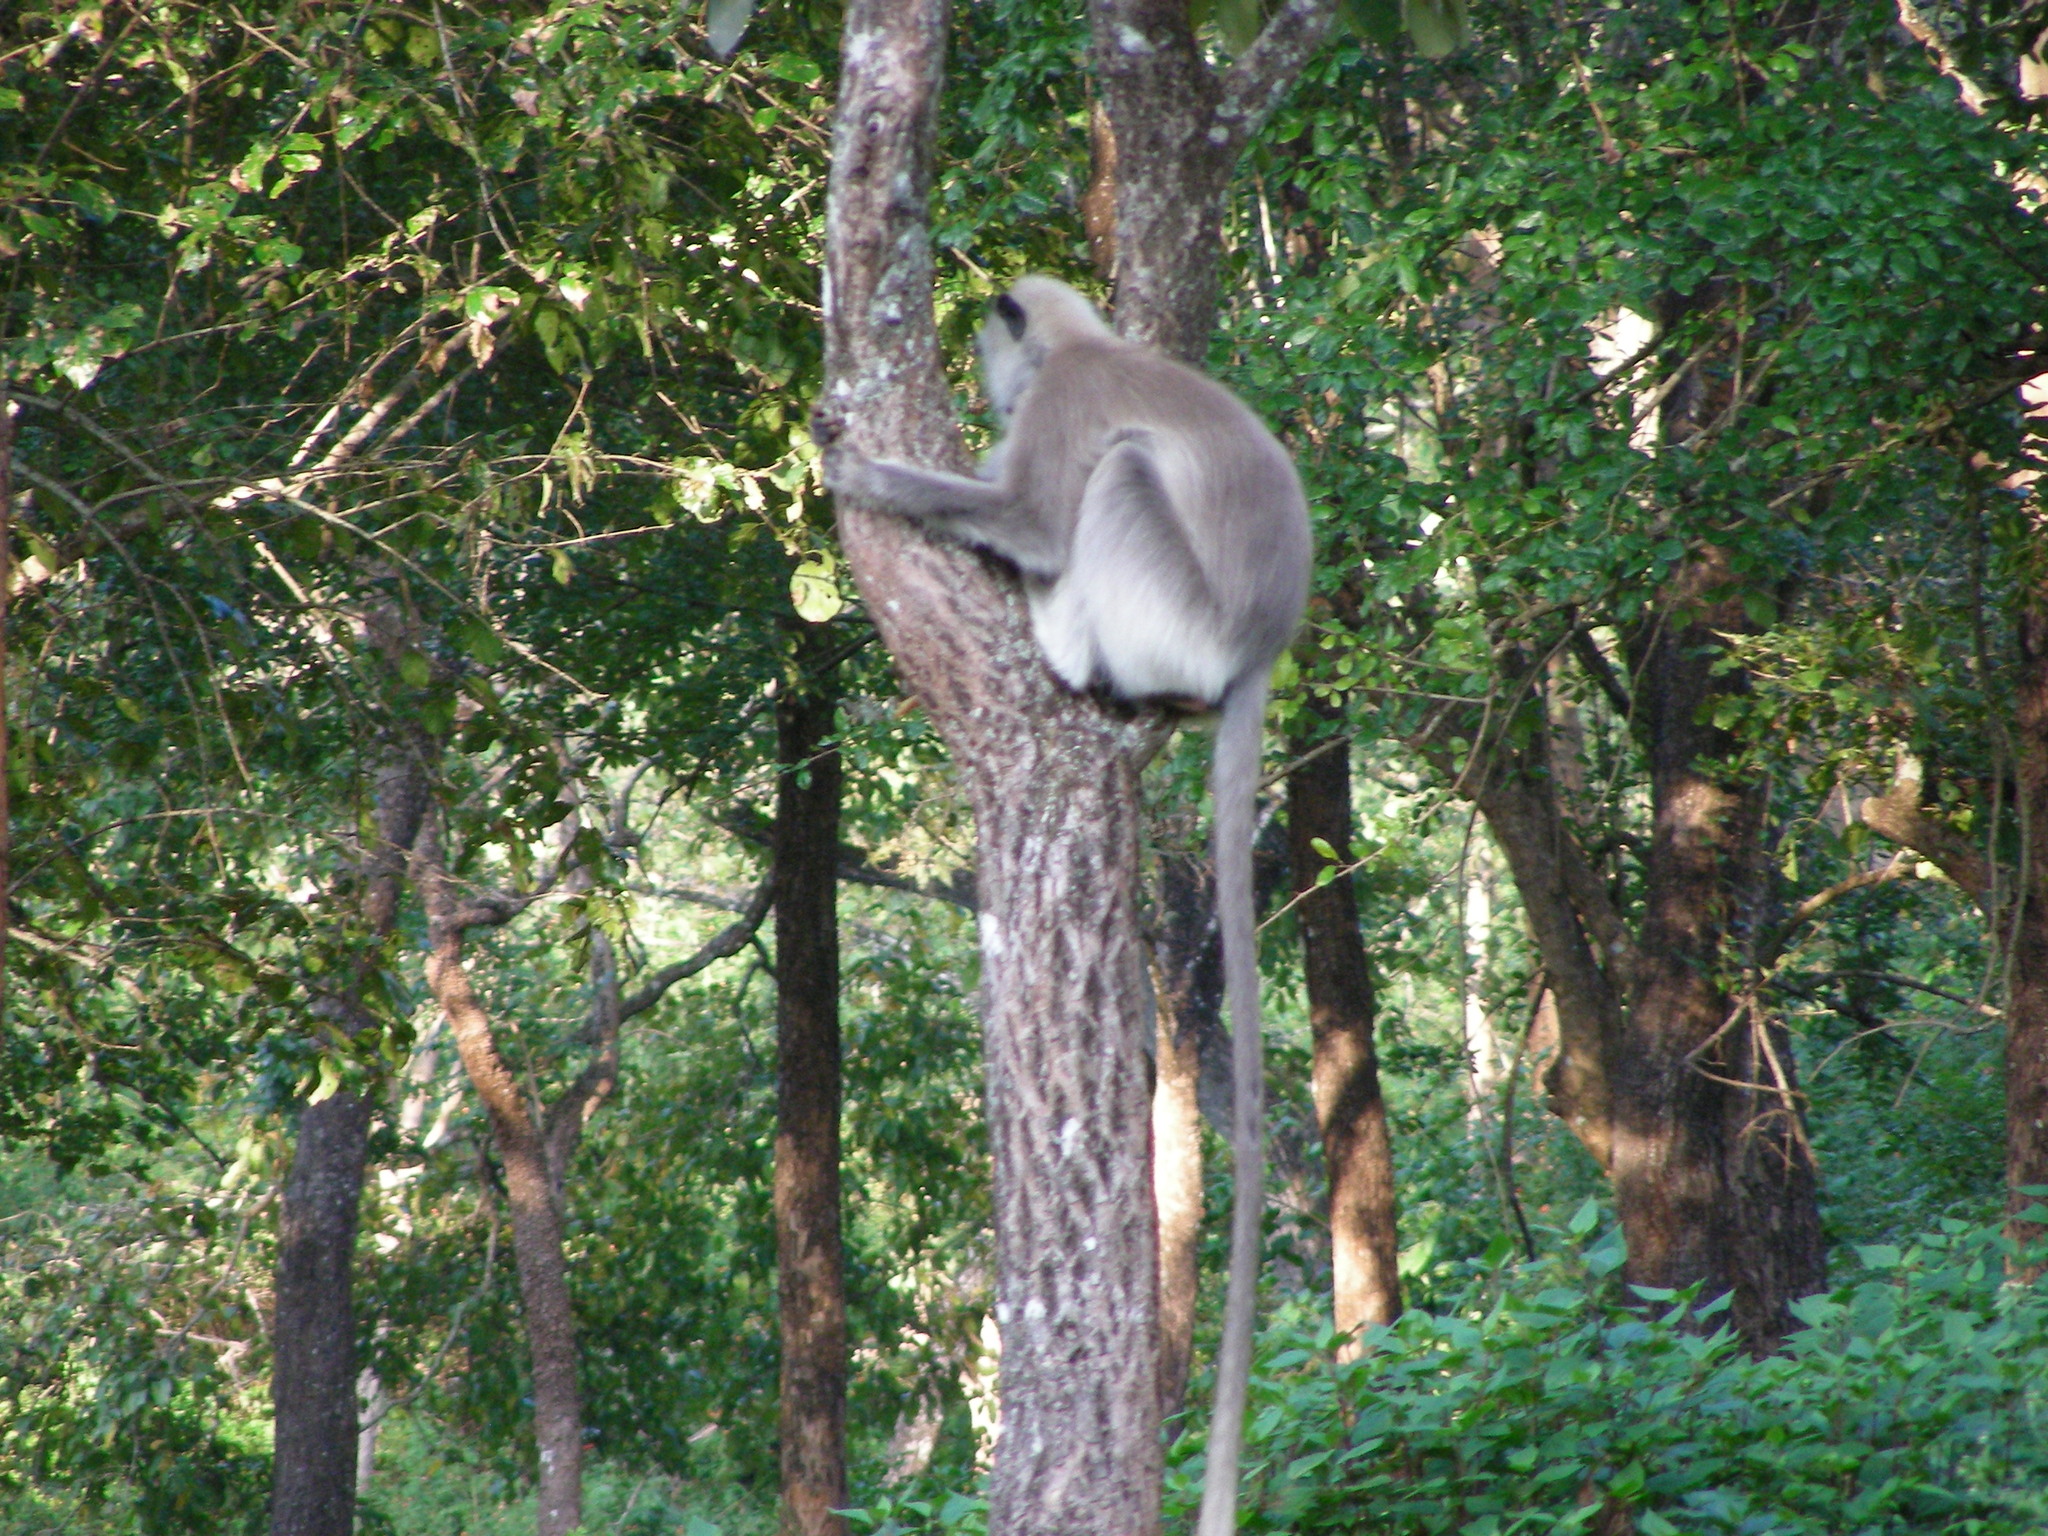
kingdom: Animalia
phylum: Chordata
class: Mammalia
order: Primates
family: Cercopithecidae
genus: Semnopithecus
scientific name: Semnopithecus hypoleucos
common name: Black-footed gray langur
